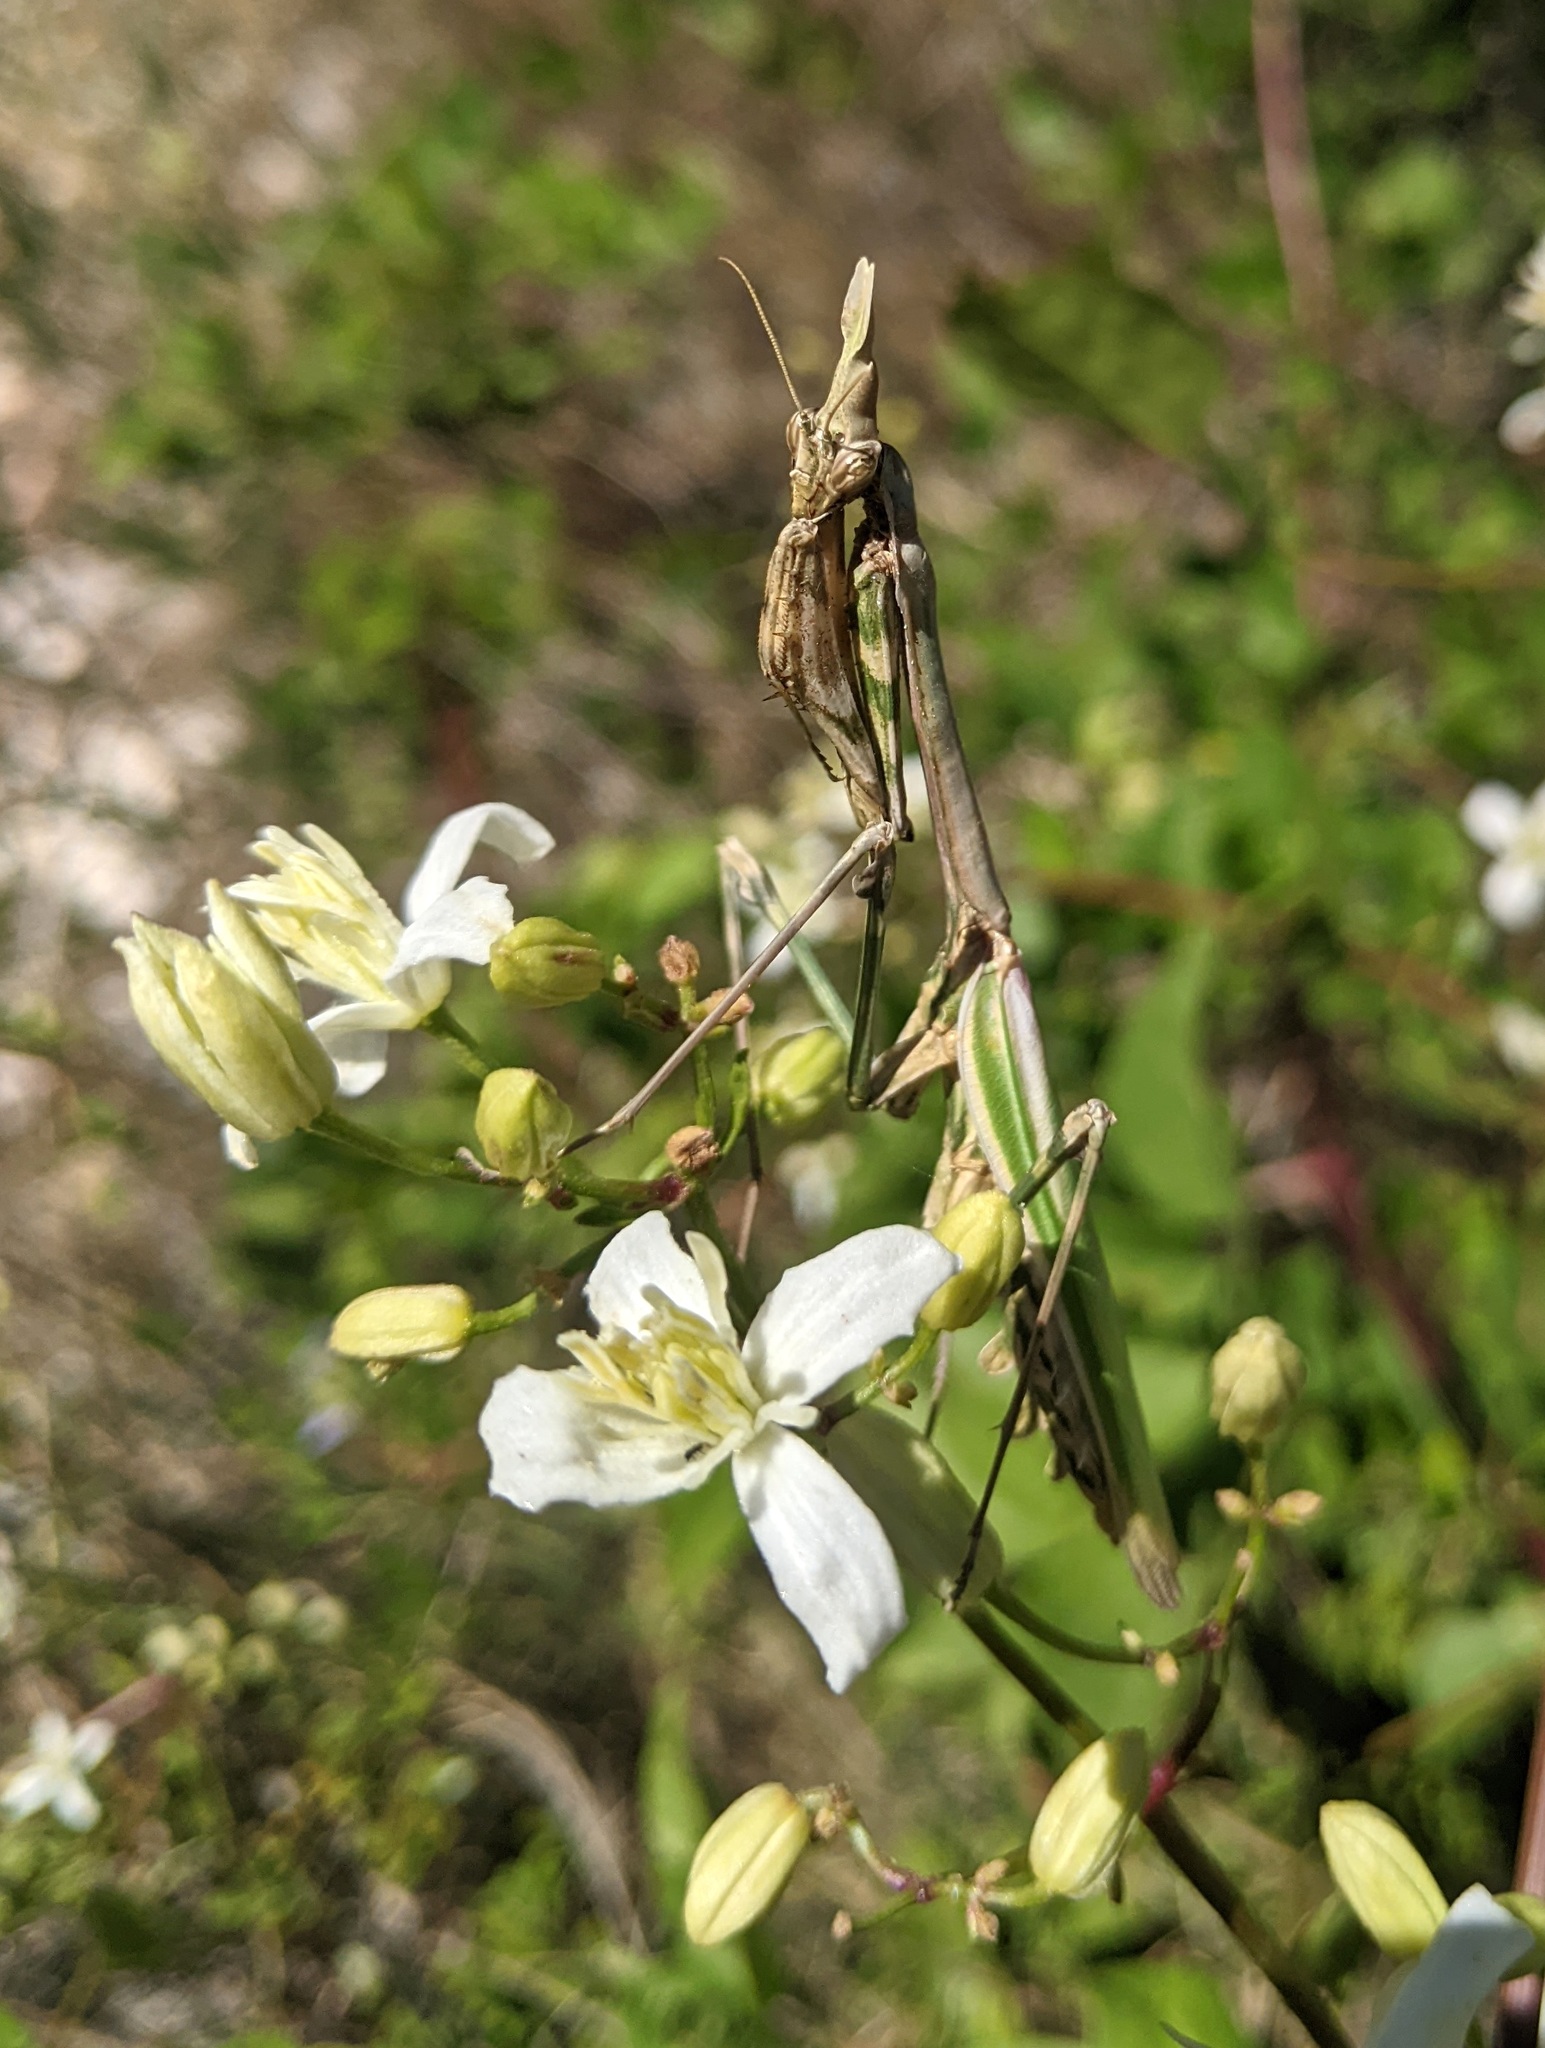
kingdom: Animalia
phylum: Arthropoda
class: Insecta
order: Mantodea
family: Empusidae
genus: Empusa
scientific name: Empusa pennata
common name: Conehead mantis
